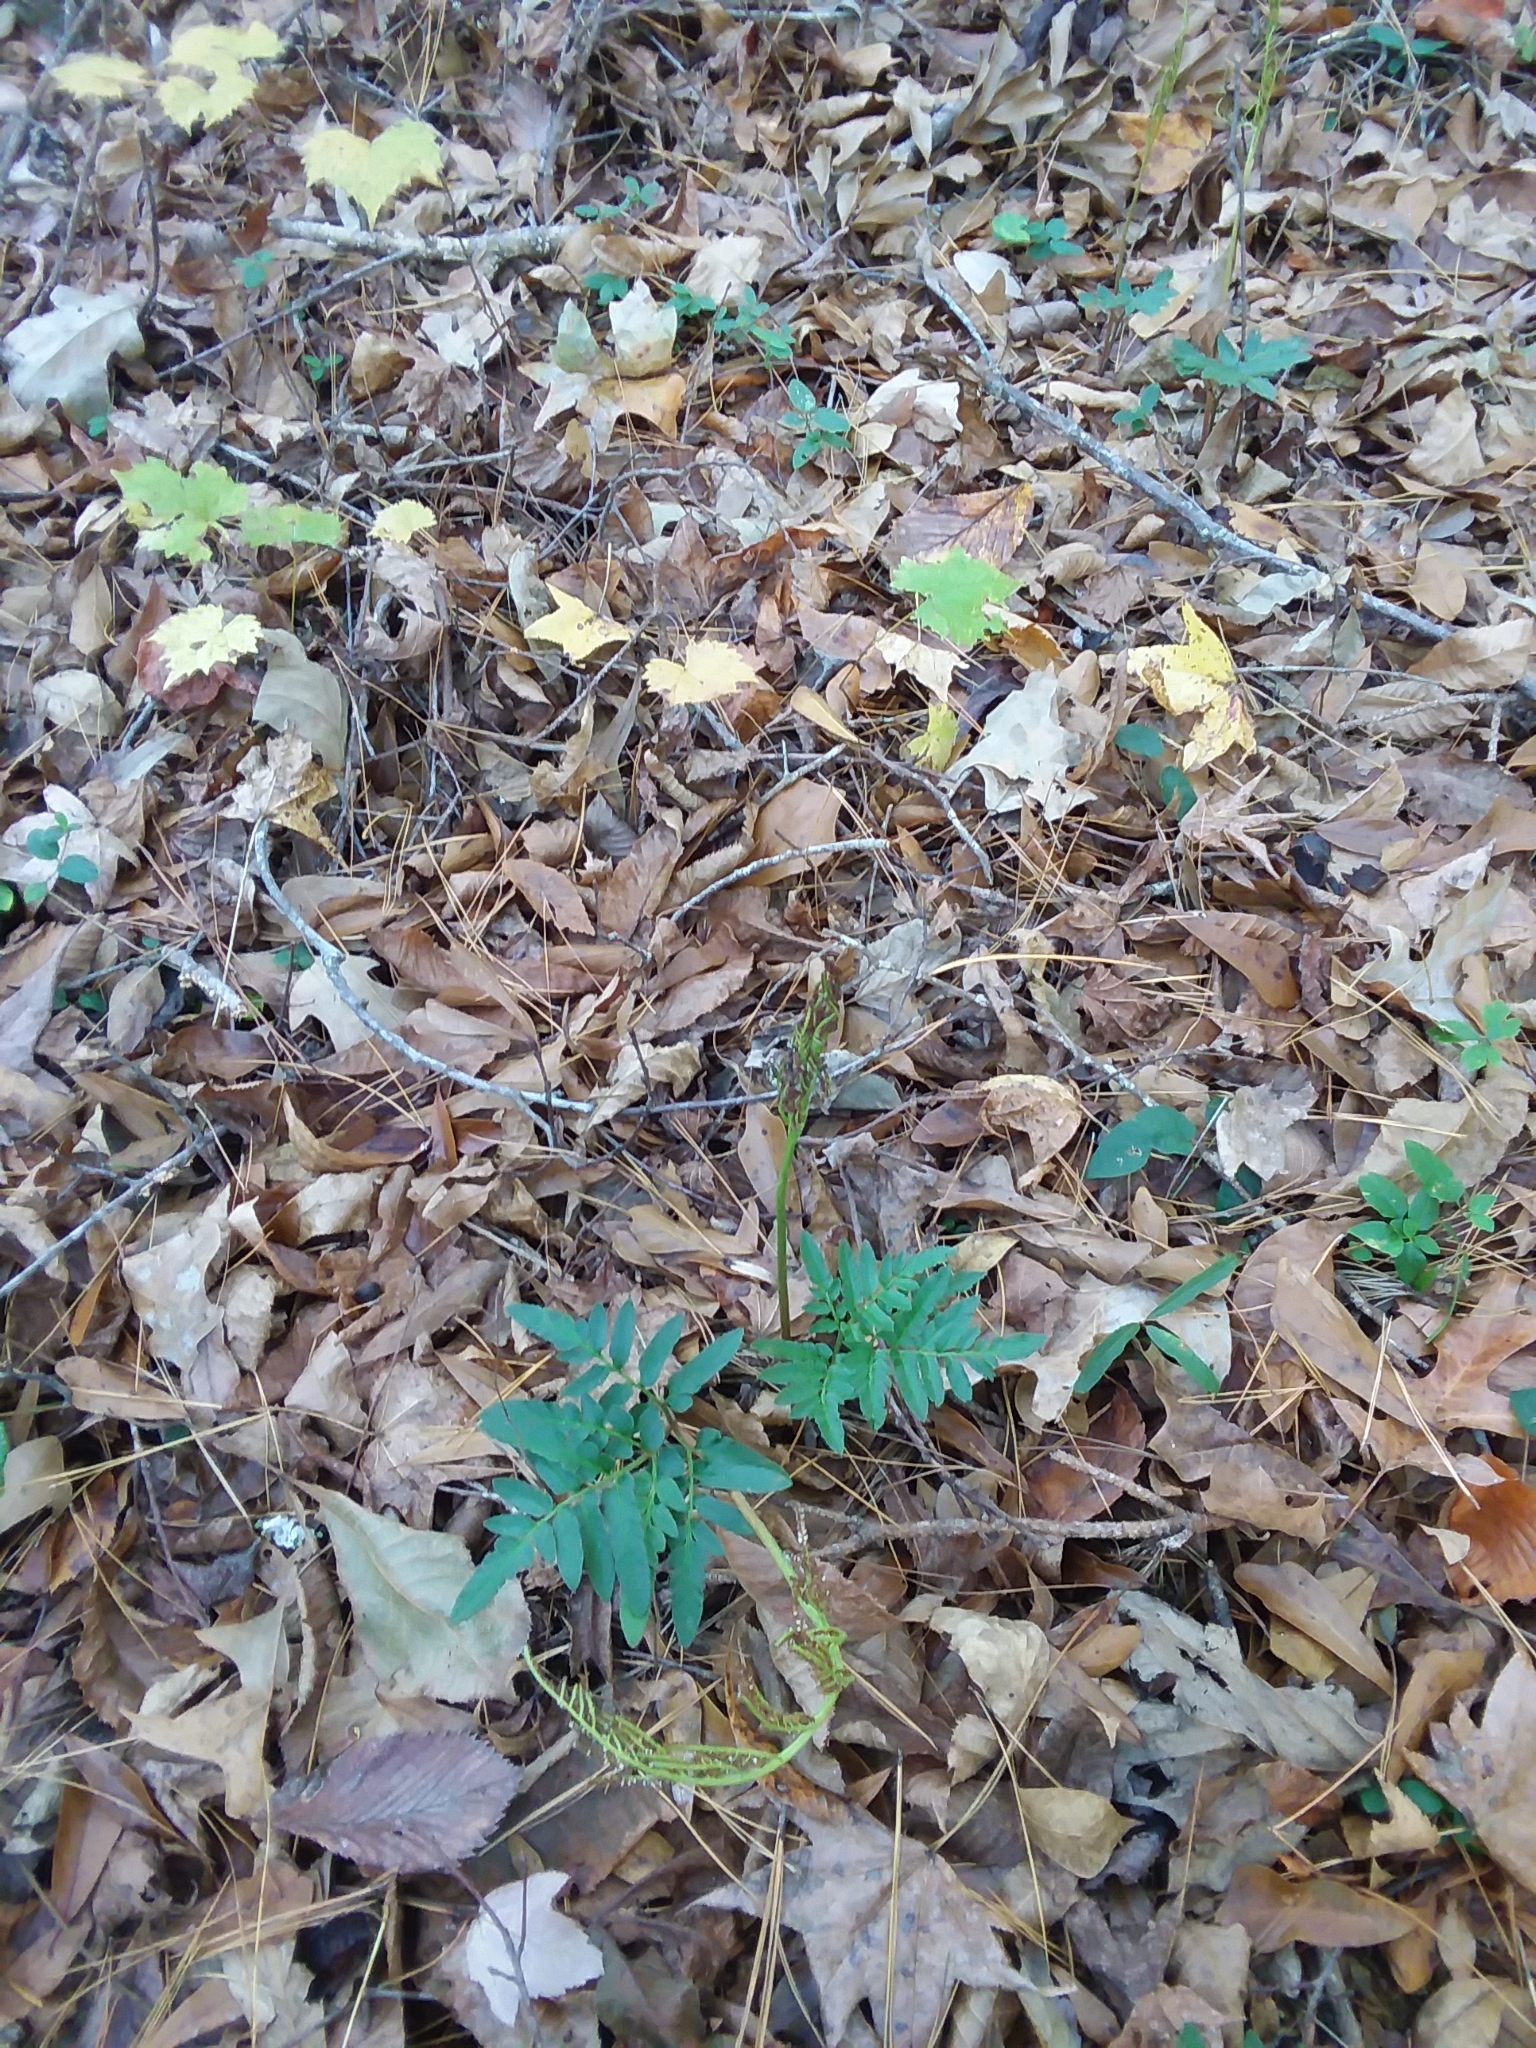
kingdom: Plantae
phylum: Tracheophyta
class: Polypodiopsida
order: Ophioglossales
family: Ophioglossaceae
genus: Sceptridium
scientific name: Sceptridium biternatum
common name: Sparse-lobed grapefern
